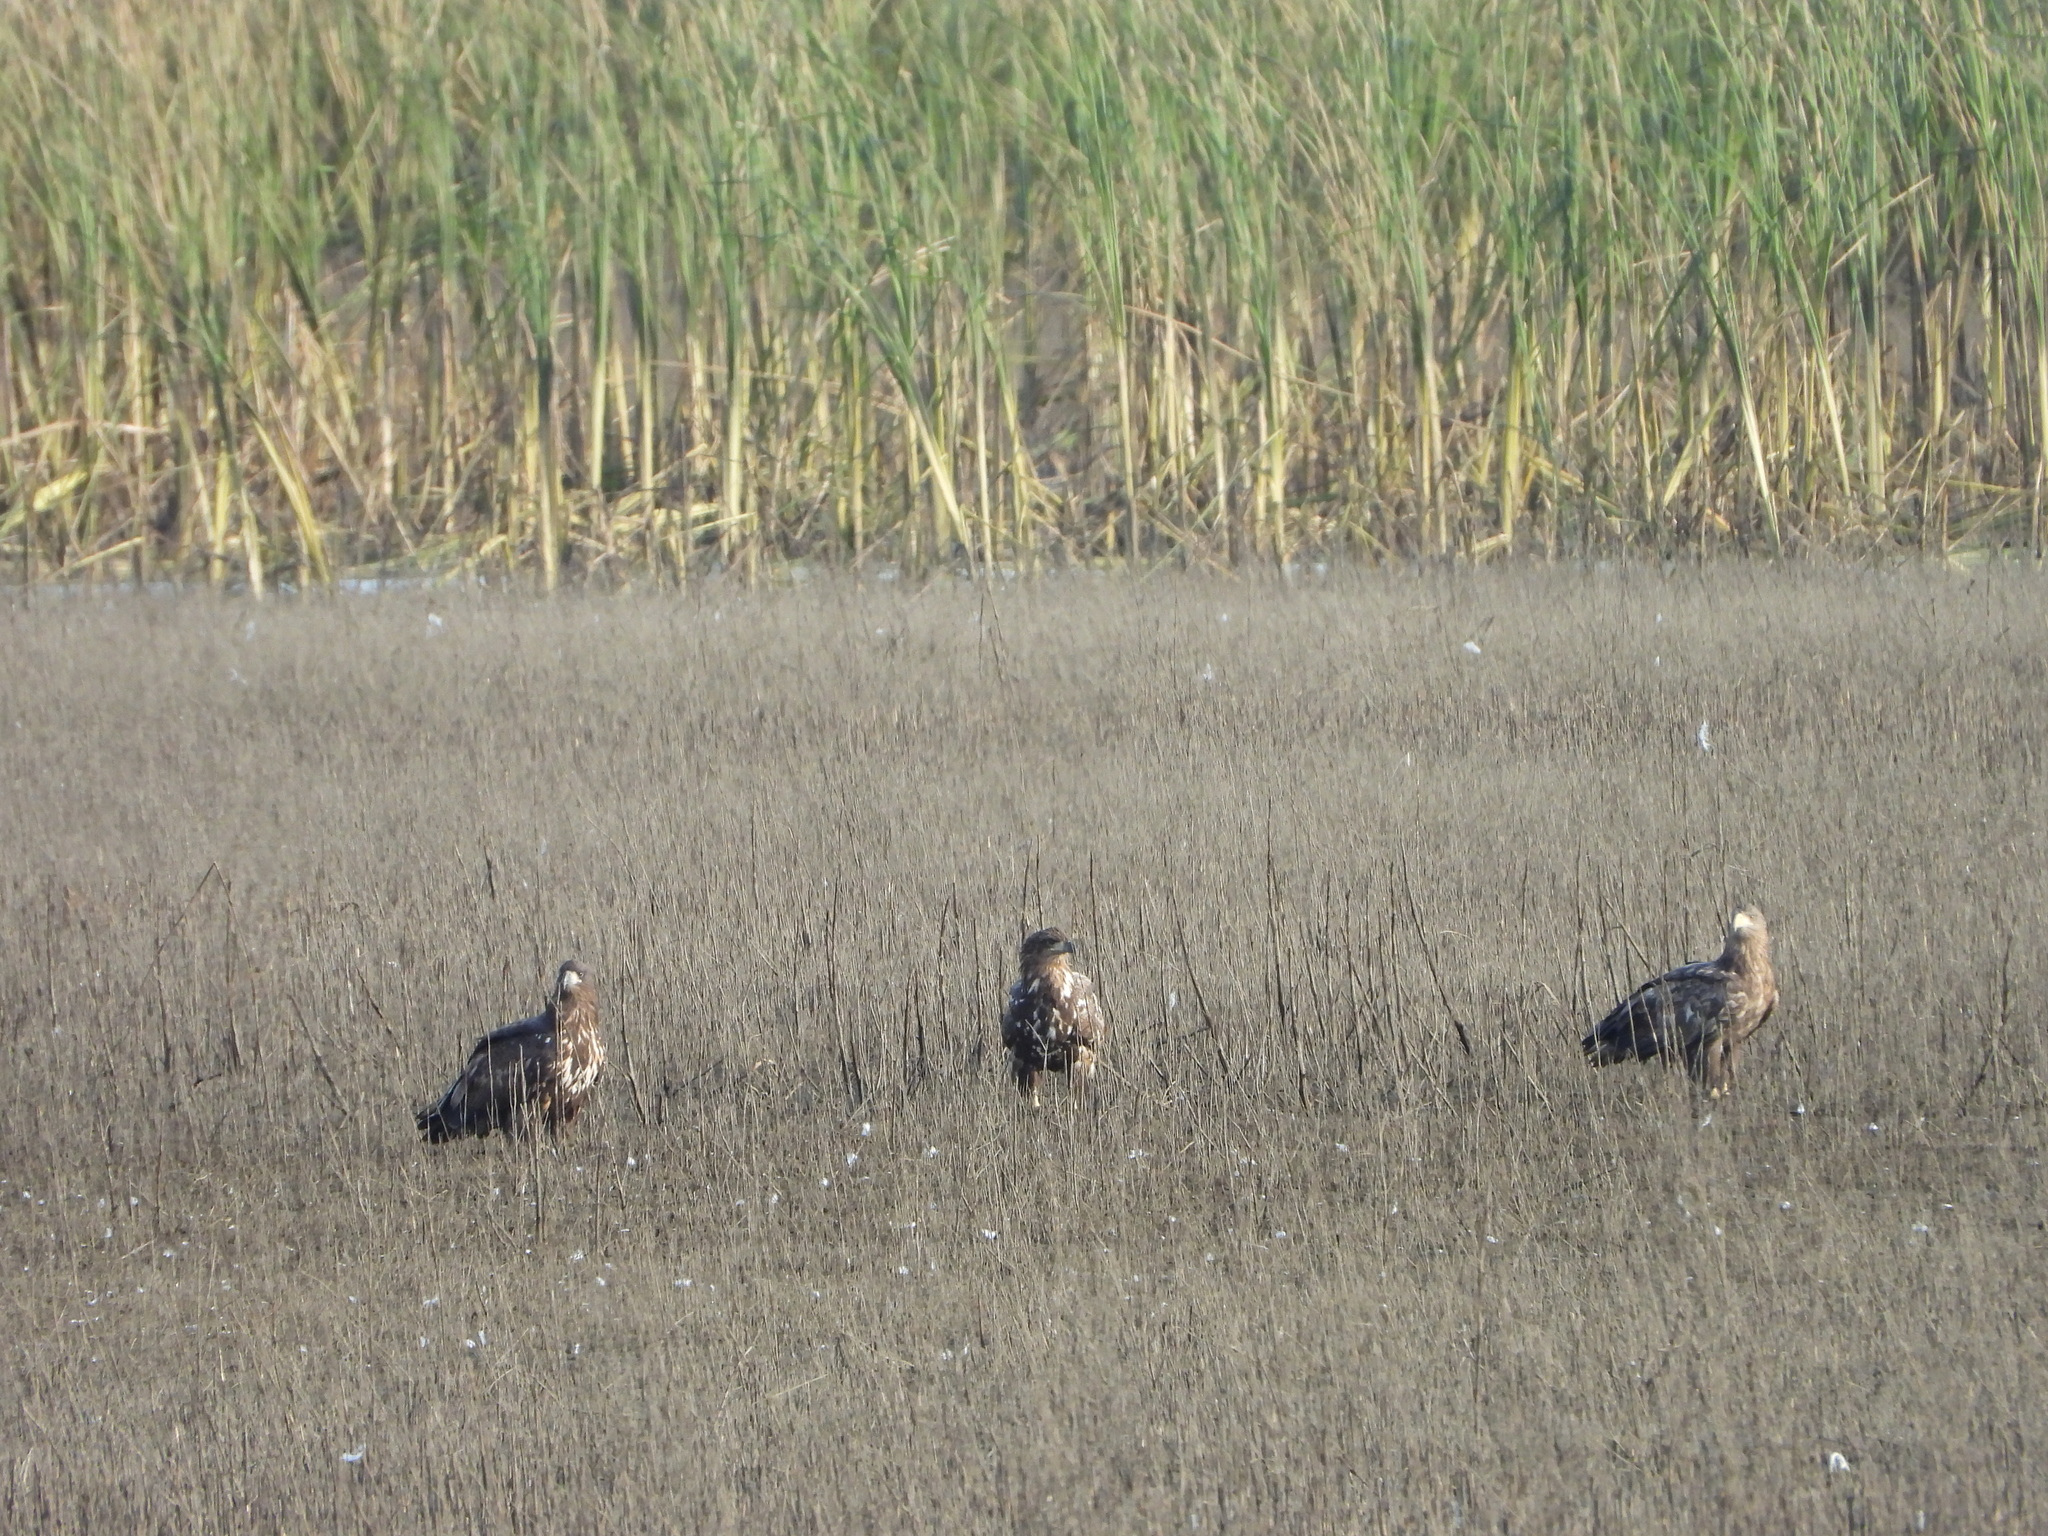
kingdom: Animalia
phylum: Chordata
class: Aves
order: Accipitriformes
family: Accipitridae
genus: Haliaeetus
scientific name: Haliaeetus albicilla
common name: White-tailed eagle
